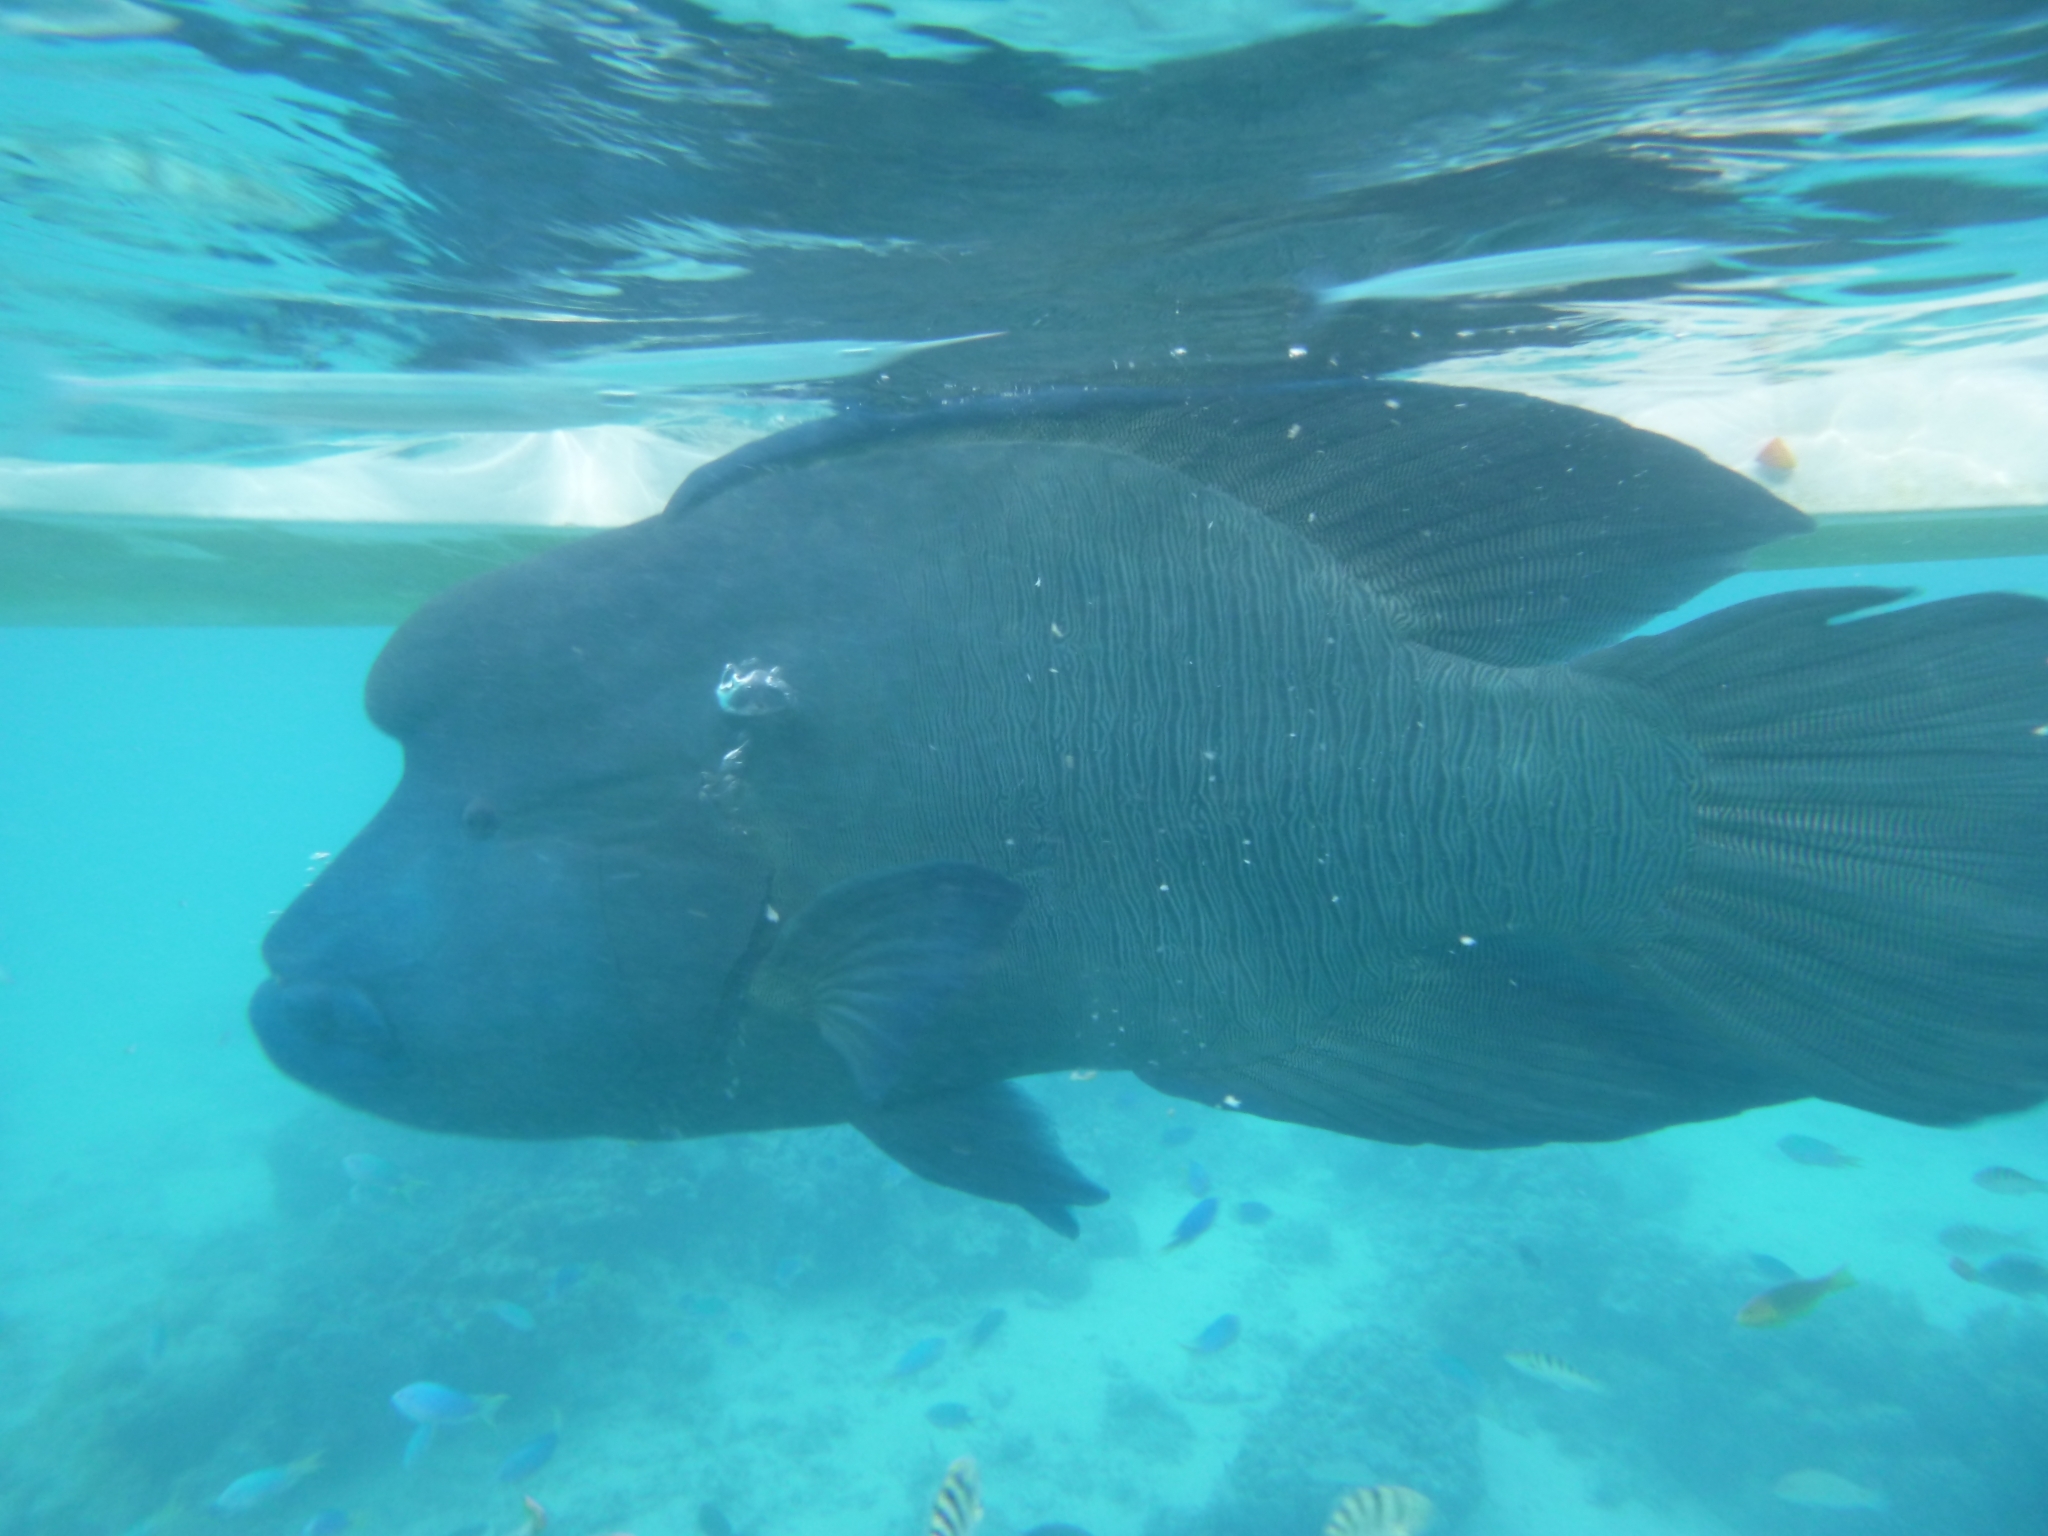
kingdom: Animalia
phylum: Chordata
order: Perciformes
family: Labridae
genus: Cheilinus
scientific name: Cheilinus undulatus
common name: Humphead wrasse
